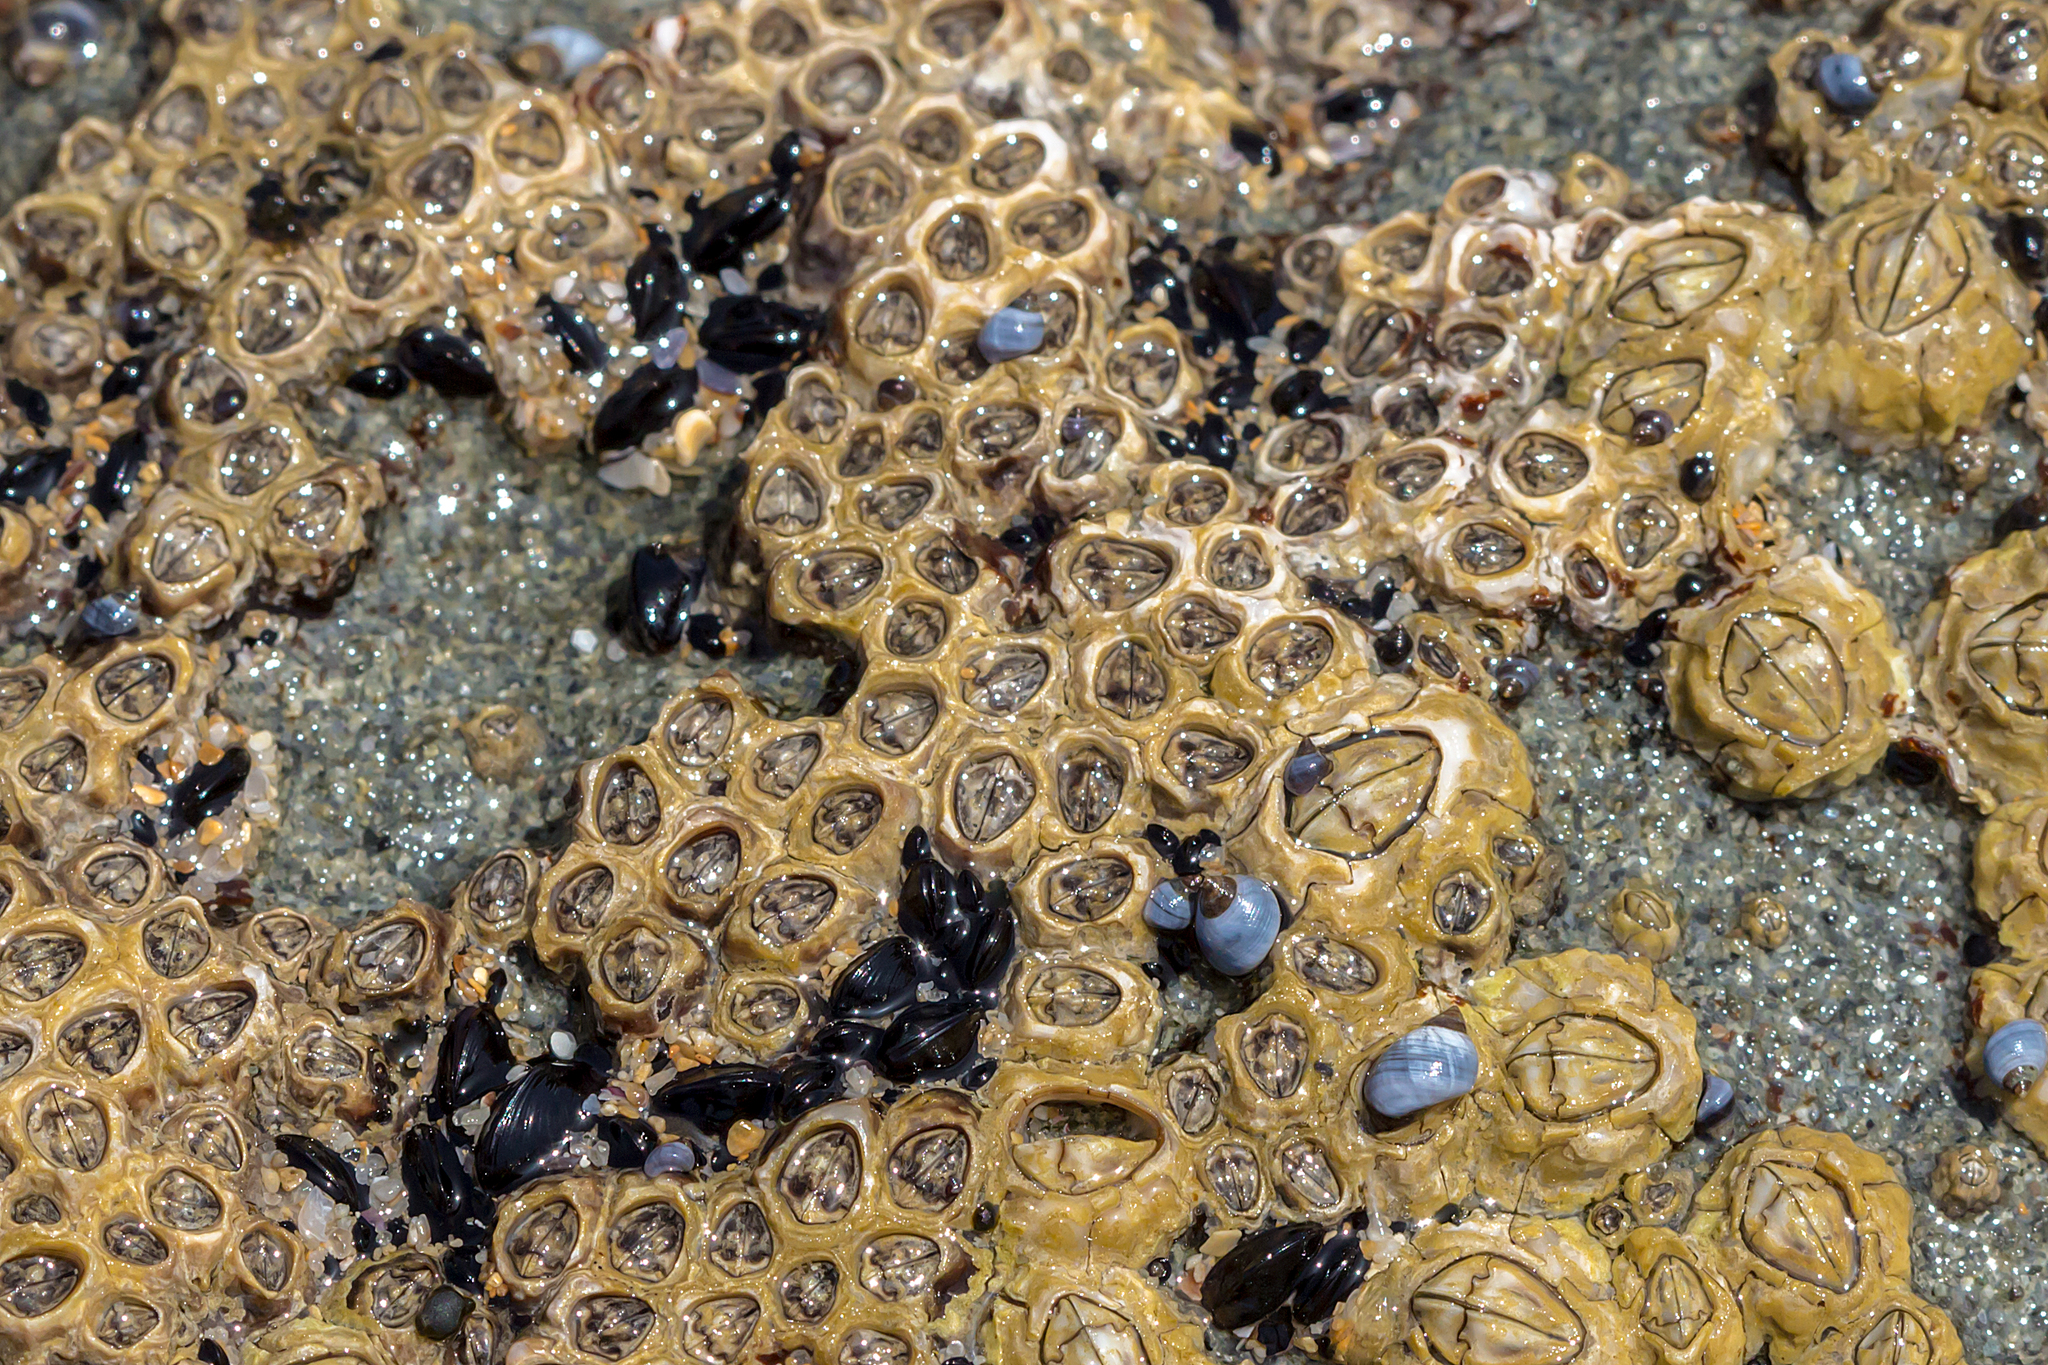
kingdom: Animalia
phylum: Arthropoda
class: Maxillopoda
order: Sessilia
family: Chthamalidae
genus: Chamaesipho
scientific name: Chamaesipho tasmanica
